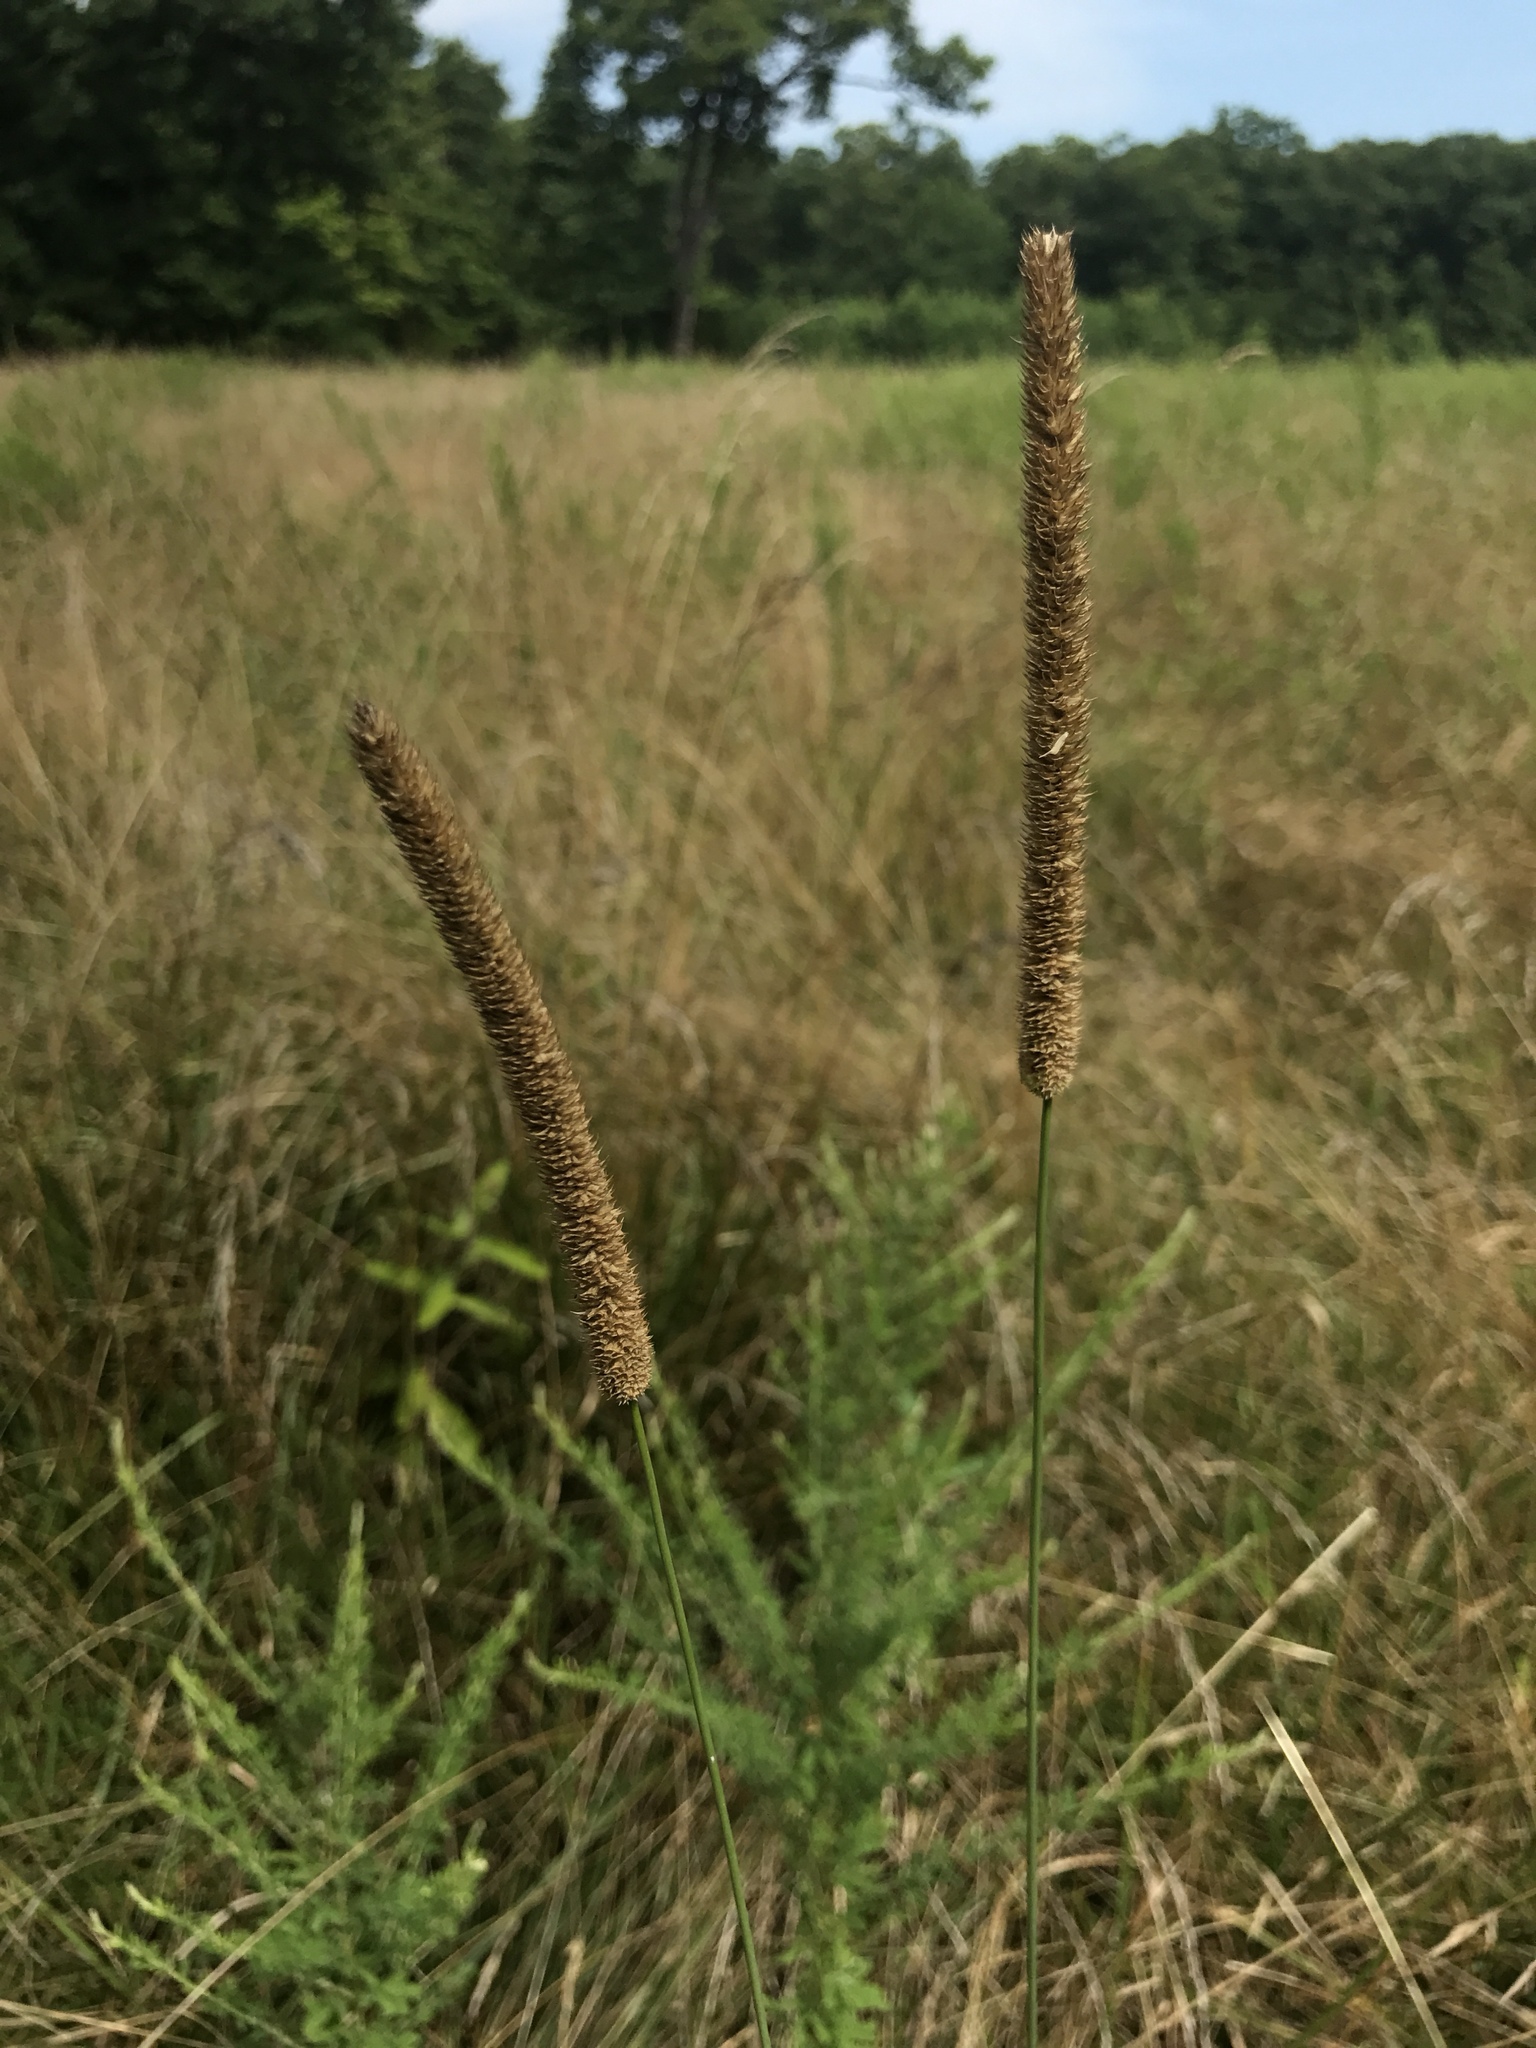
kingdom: Plantae
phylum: Tracheophyta
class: Liliopsida
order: Poales
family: Poaceae
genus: Phleum
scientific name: Phleum pratense
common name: Timothy grass
